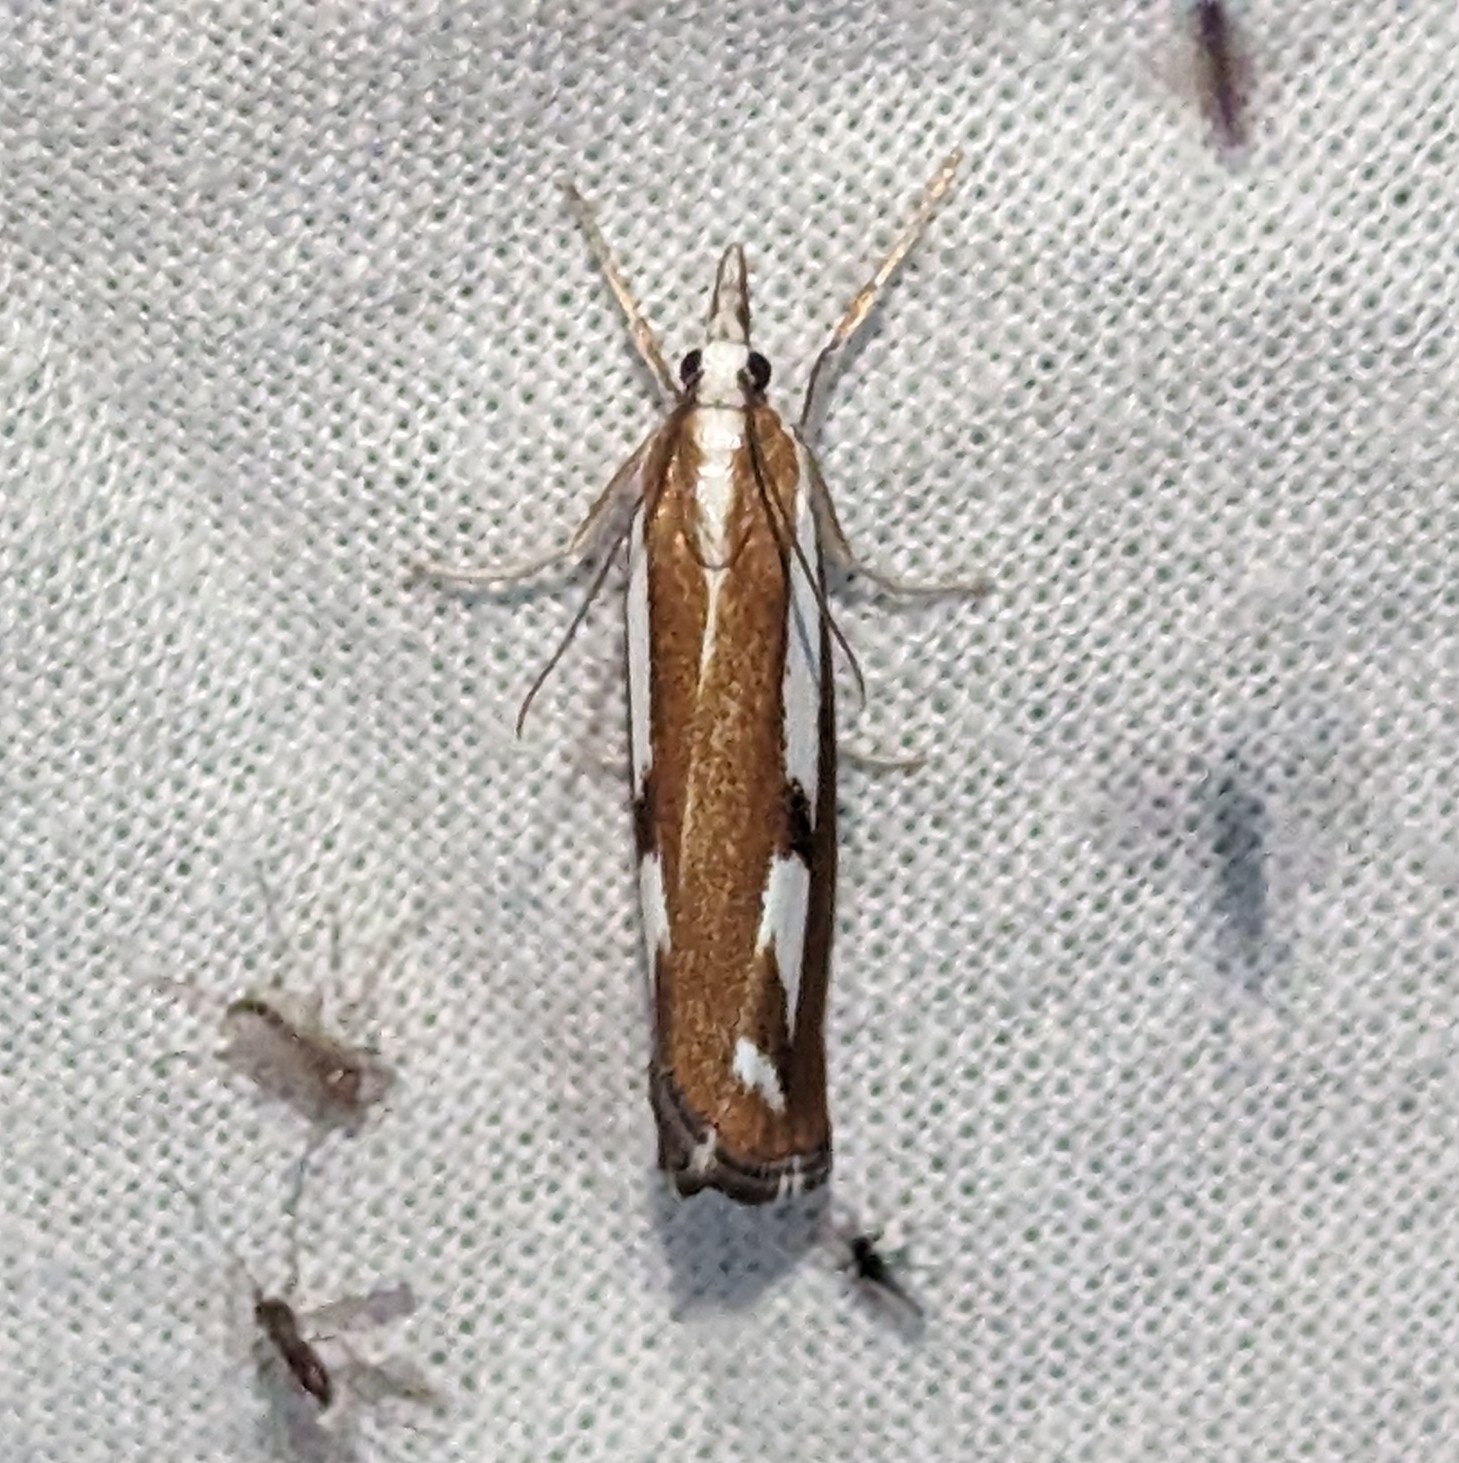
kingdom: Animalia
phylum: Arthropoda
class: Insecta
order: Lepidoptera
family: Crambidae
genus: Catoptria
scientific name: Catoptria latiradiellus
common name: Two-banded catoptria moth
